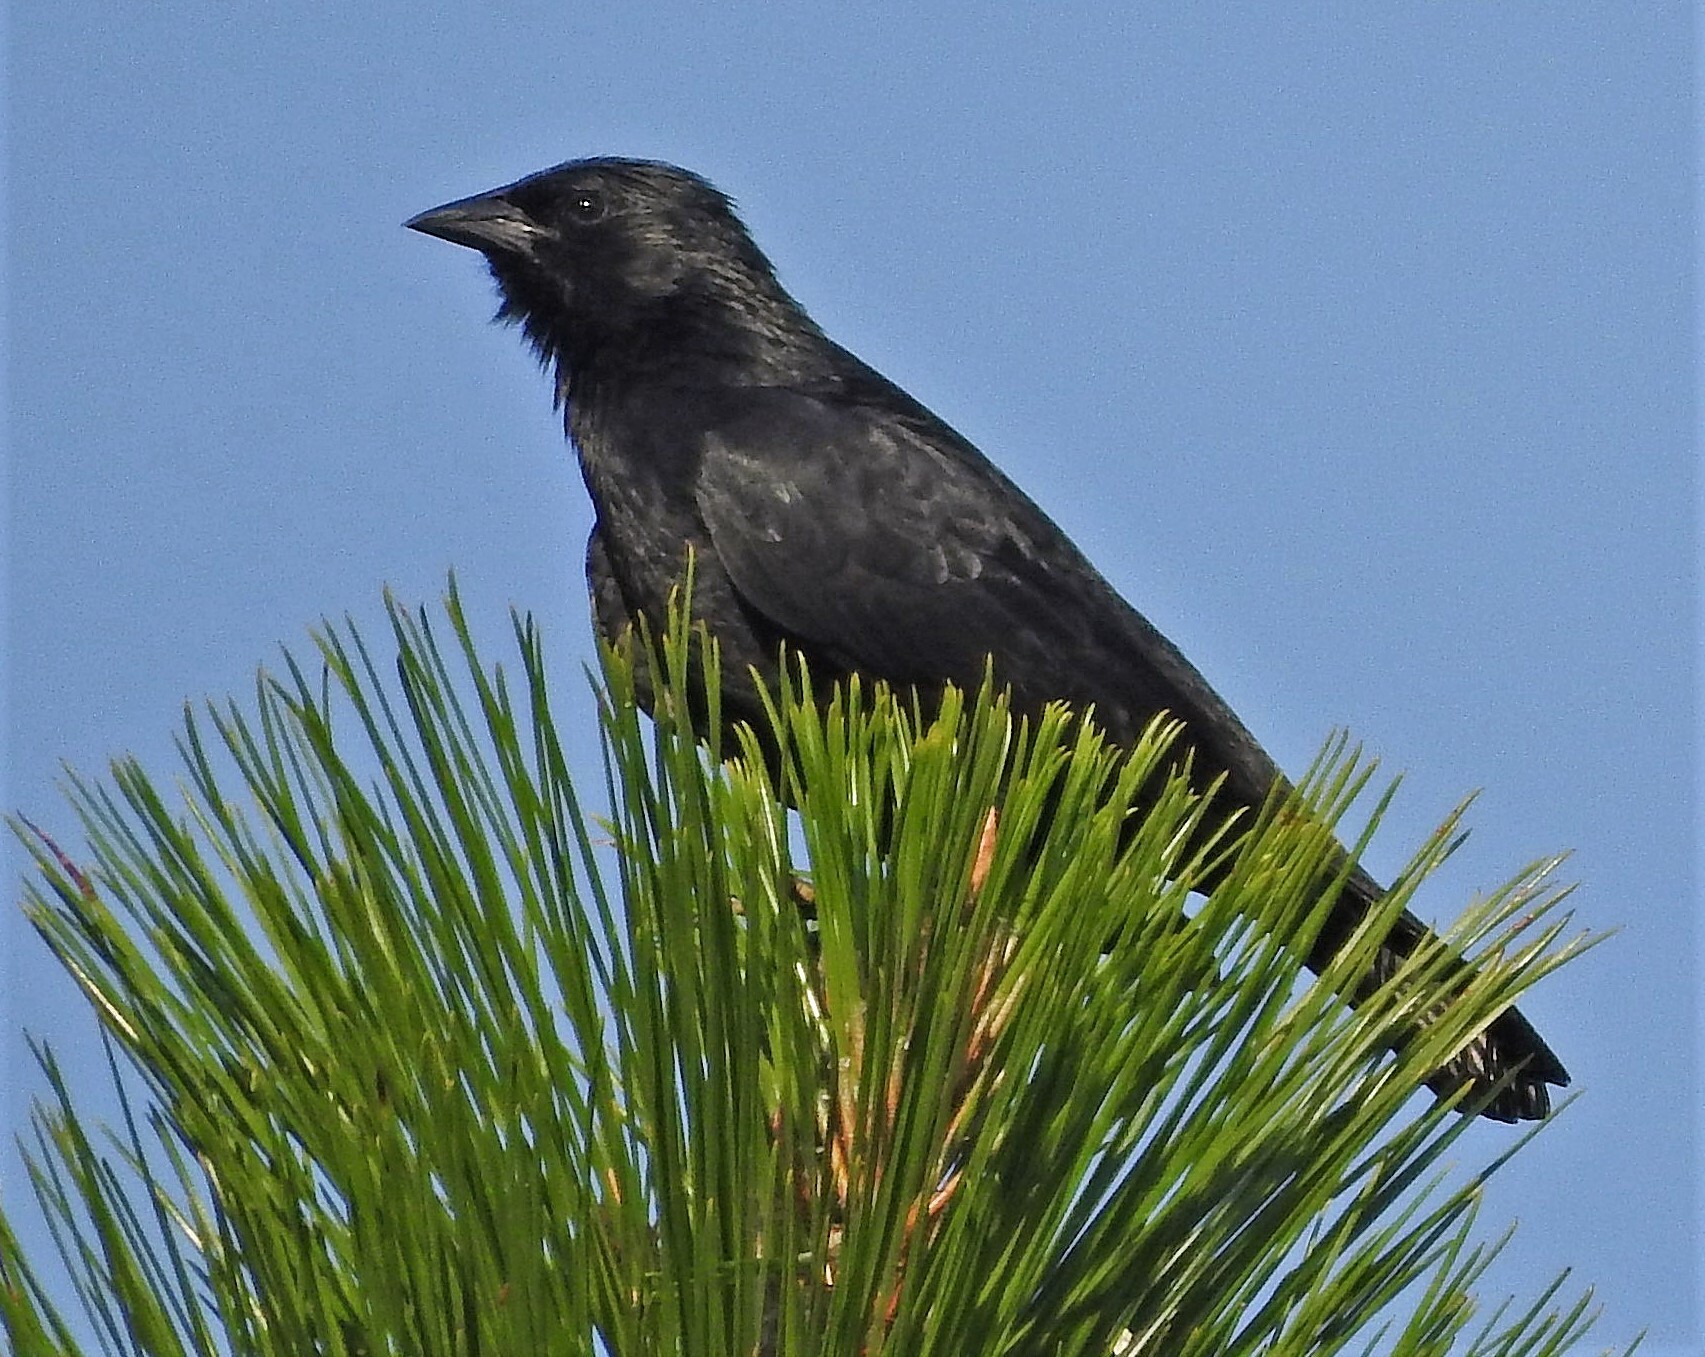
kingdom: Animalia
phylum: Chordata
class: Aves
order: Passeriformes
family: Icteridae
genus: Gnorimopsar
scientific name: Gnorimopsar chopi
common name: Chopi blackbird
